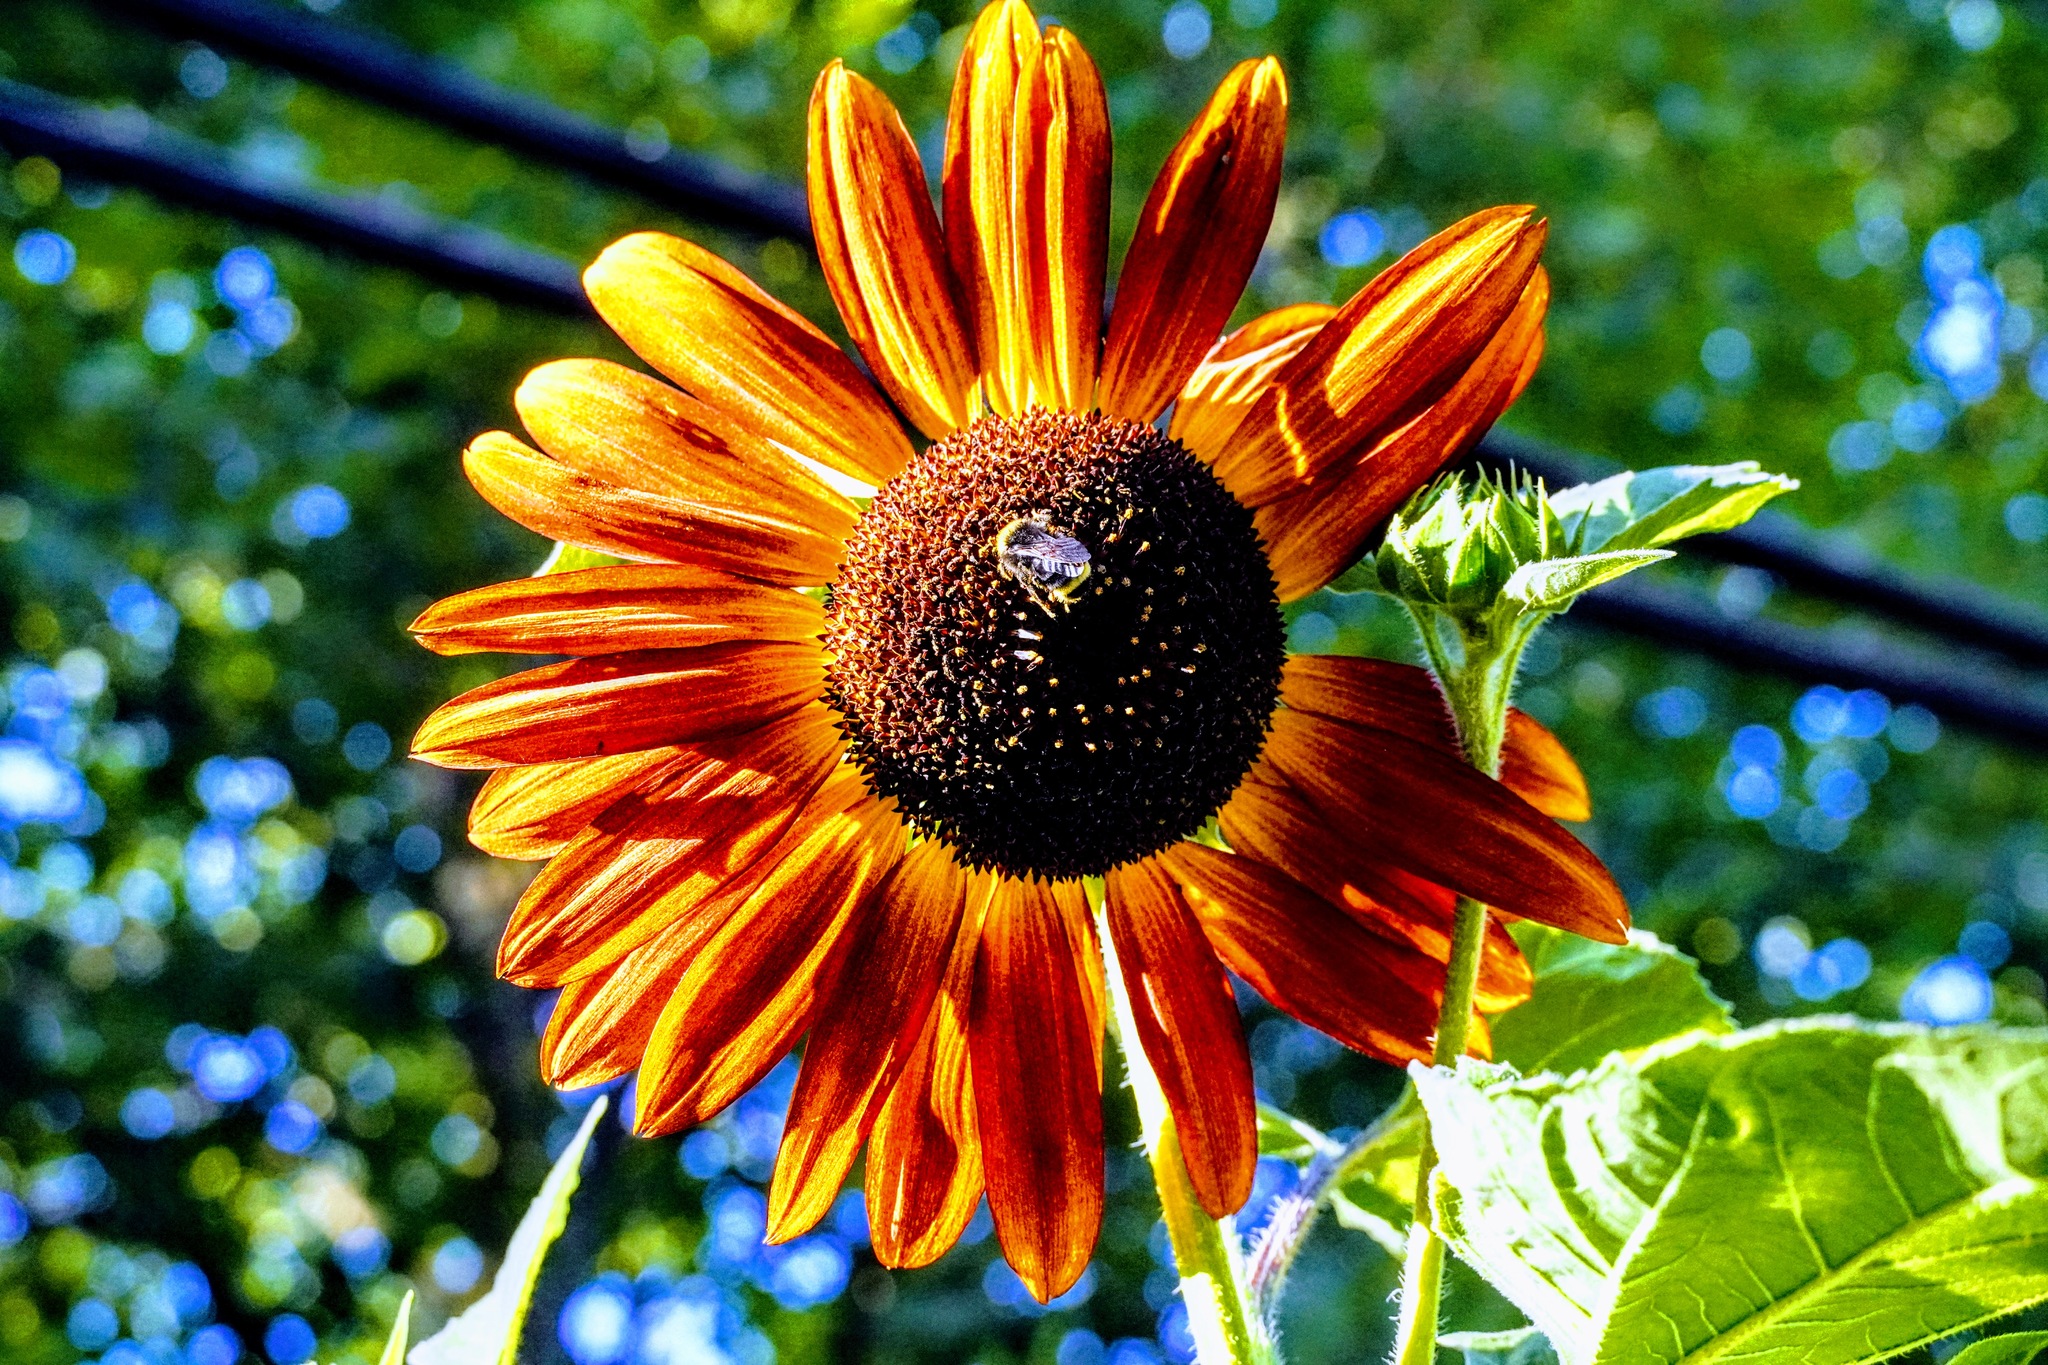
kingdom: Animalia
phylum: Arthropoda
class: Insecta
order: Hymenoptera
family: Apidae
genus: Bombus
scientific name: Bombus vosnesenskii
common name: Vosnesensky bumble bee
